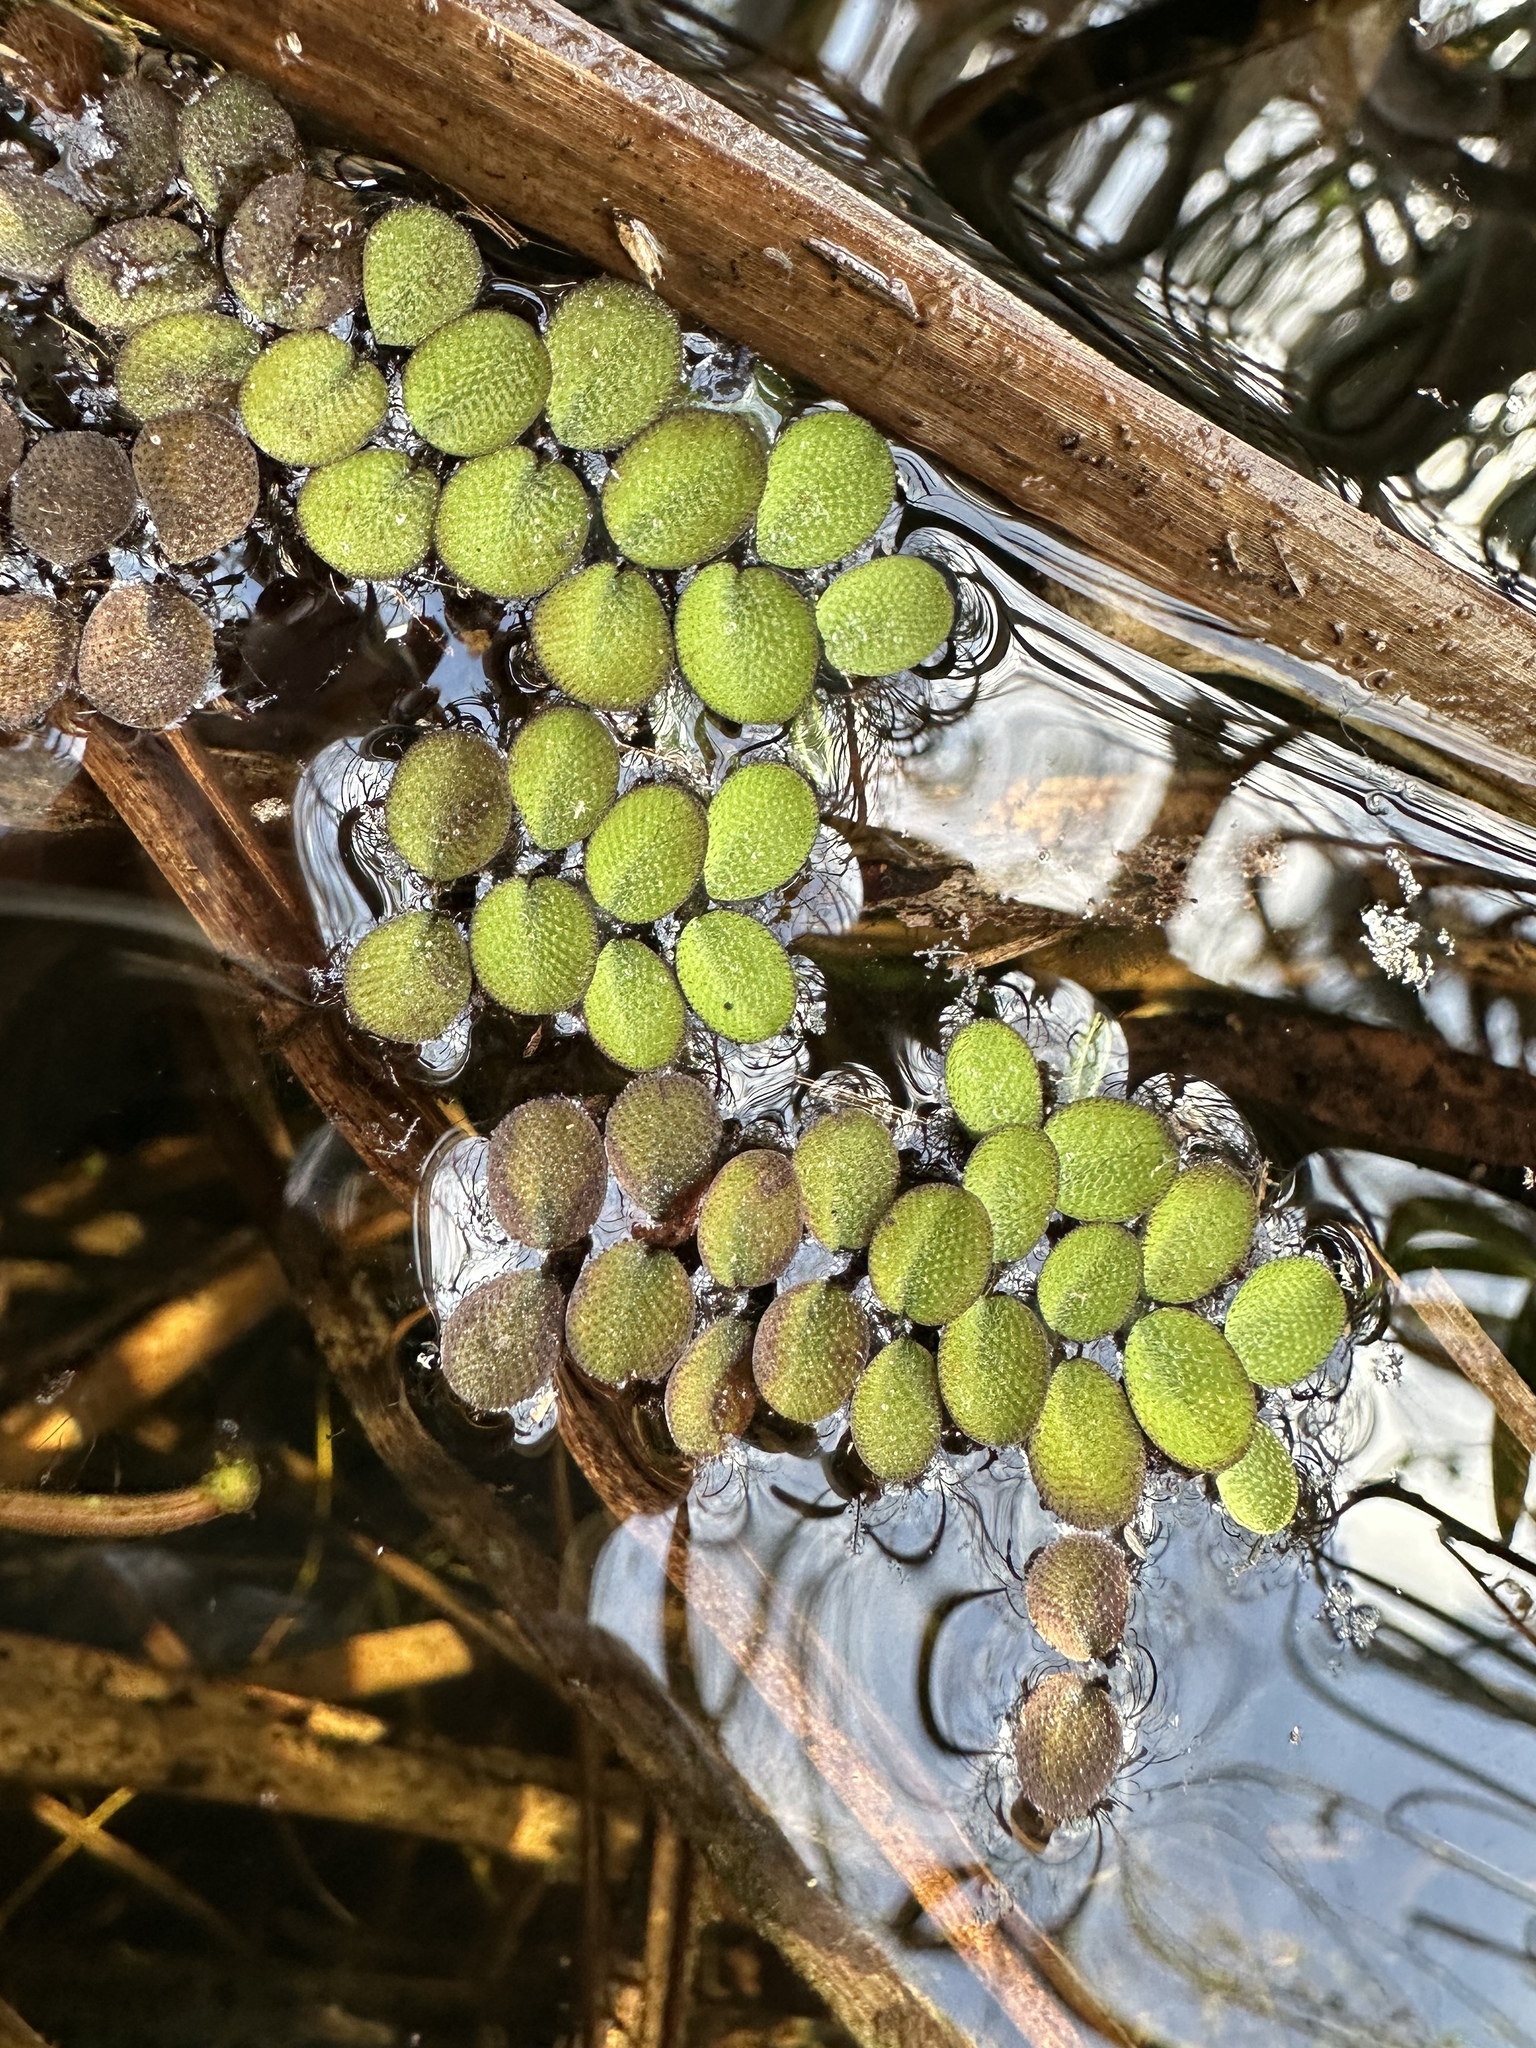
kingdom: Plantae
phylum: Tracheophyta
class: Polypodiopsida
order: Salviniales
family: Salviniaceae
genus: Salvinia
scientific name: Salvinia minima
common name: Water spangles
